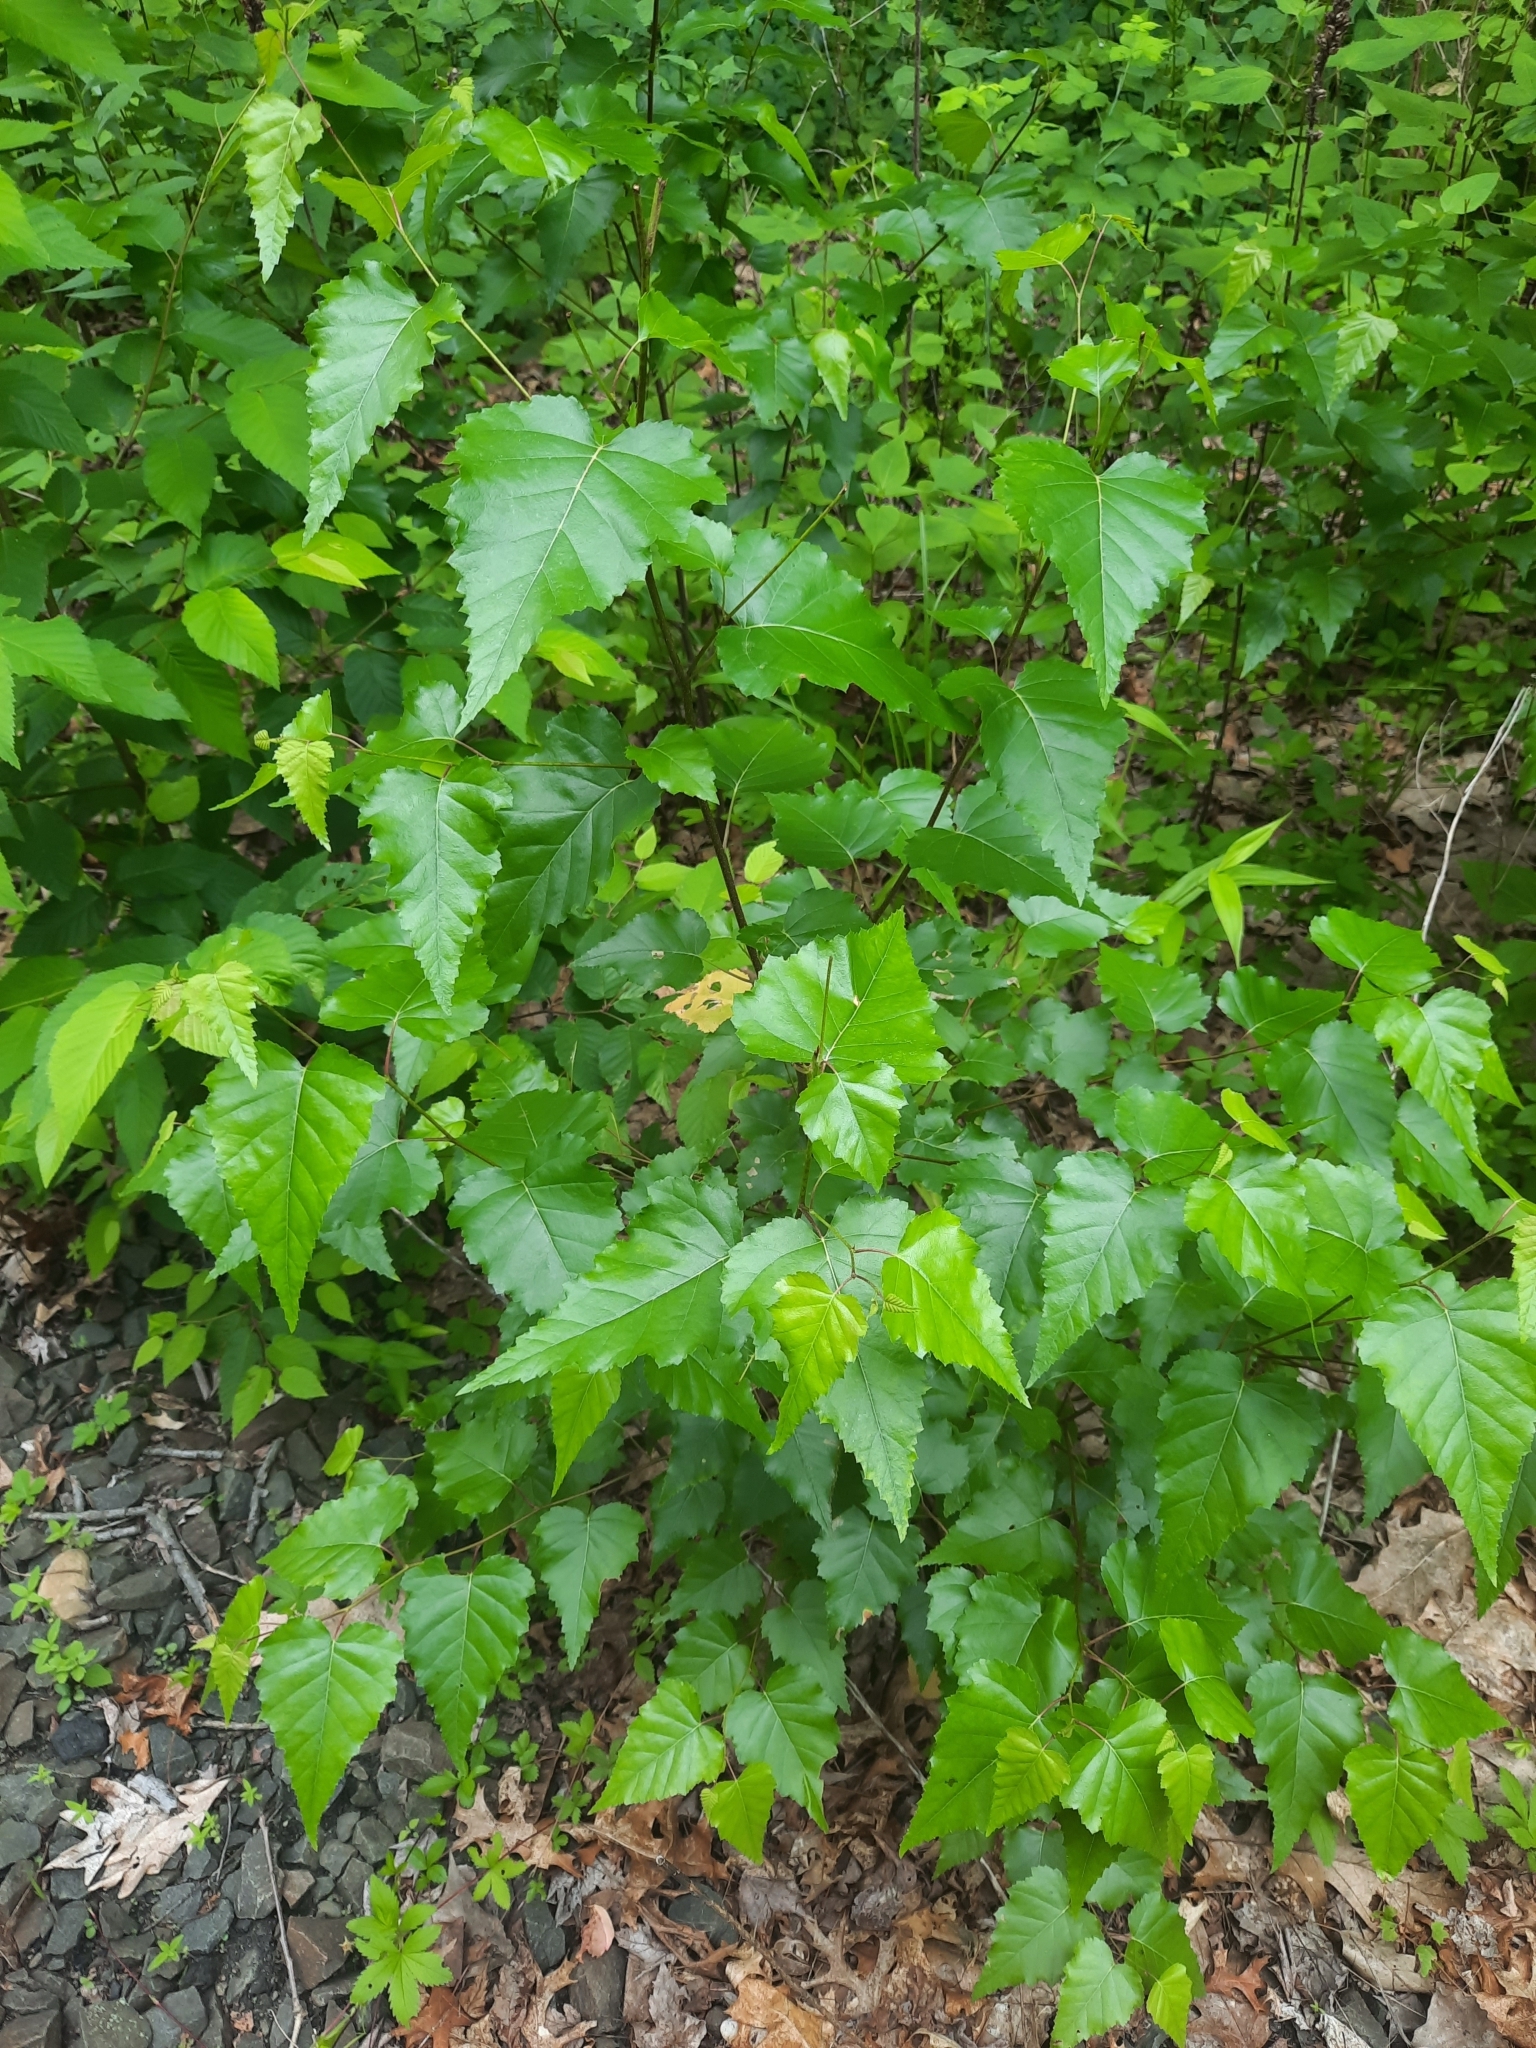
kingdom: Plantae
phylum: Tracheophyta
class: Magnoliopsida
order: Fagales
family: Betulaceae
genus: Betula
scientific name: Betula populifolia
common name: Fire birch
